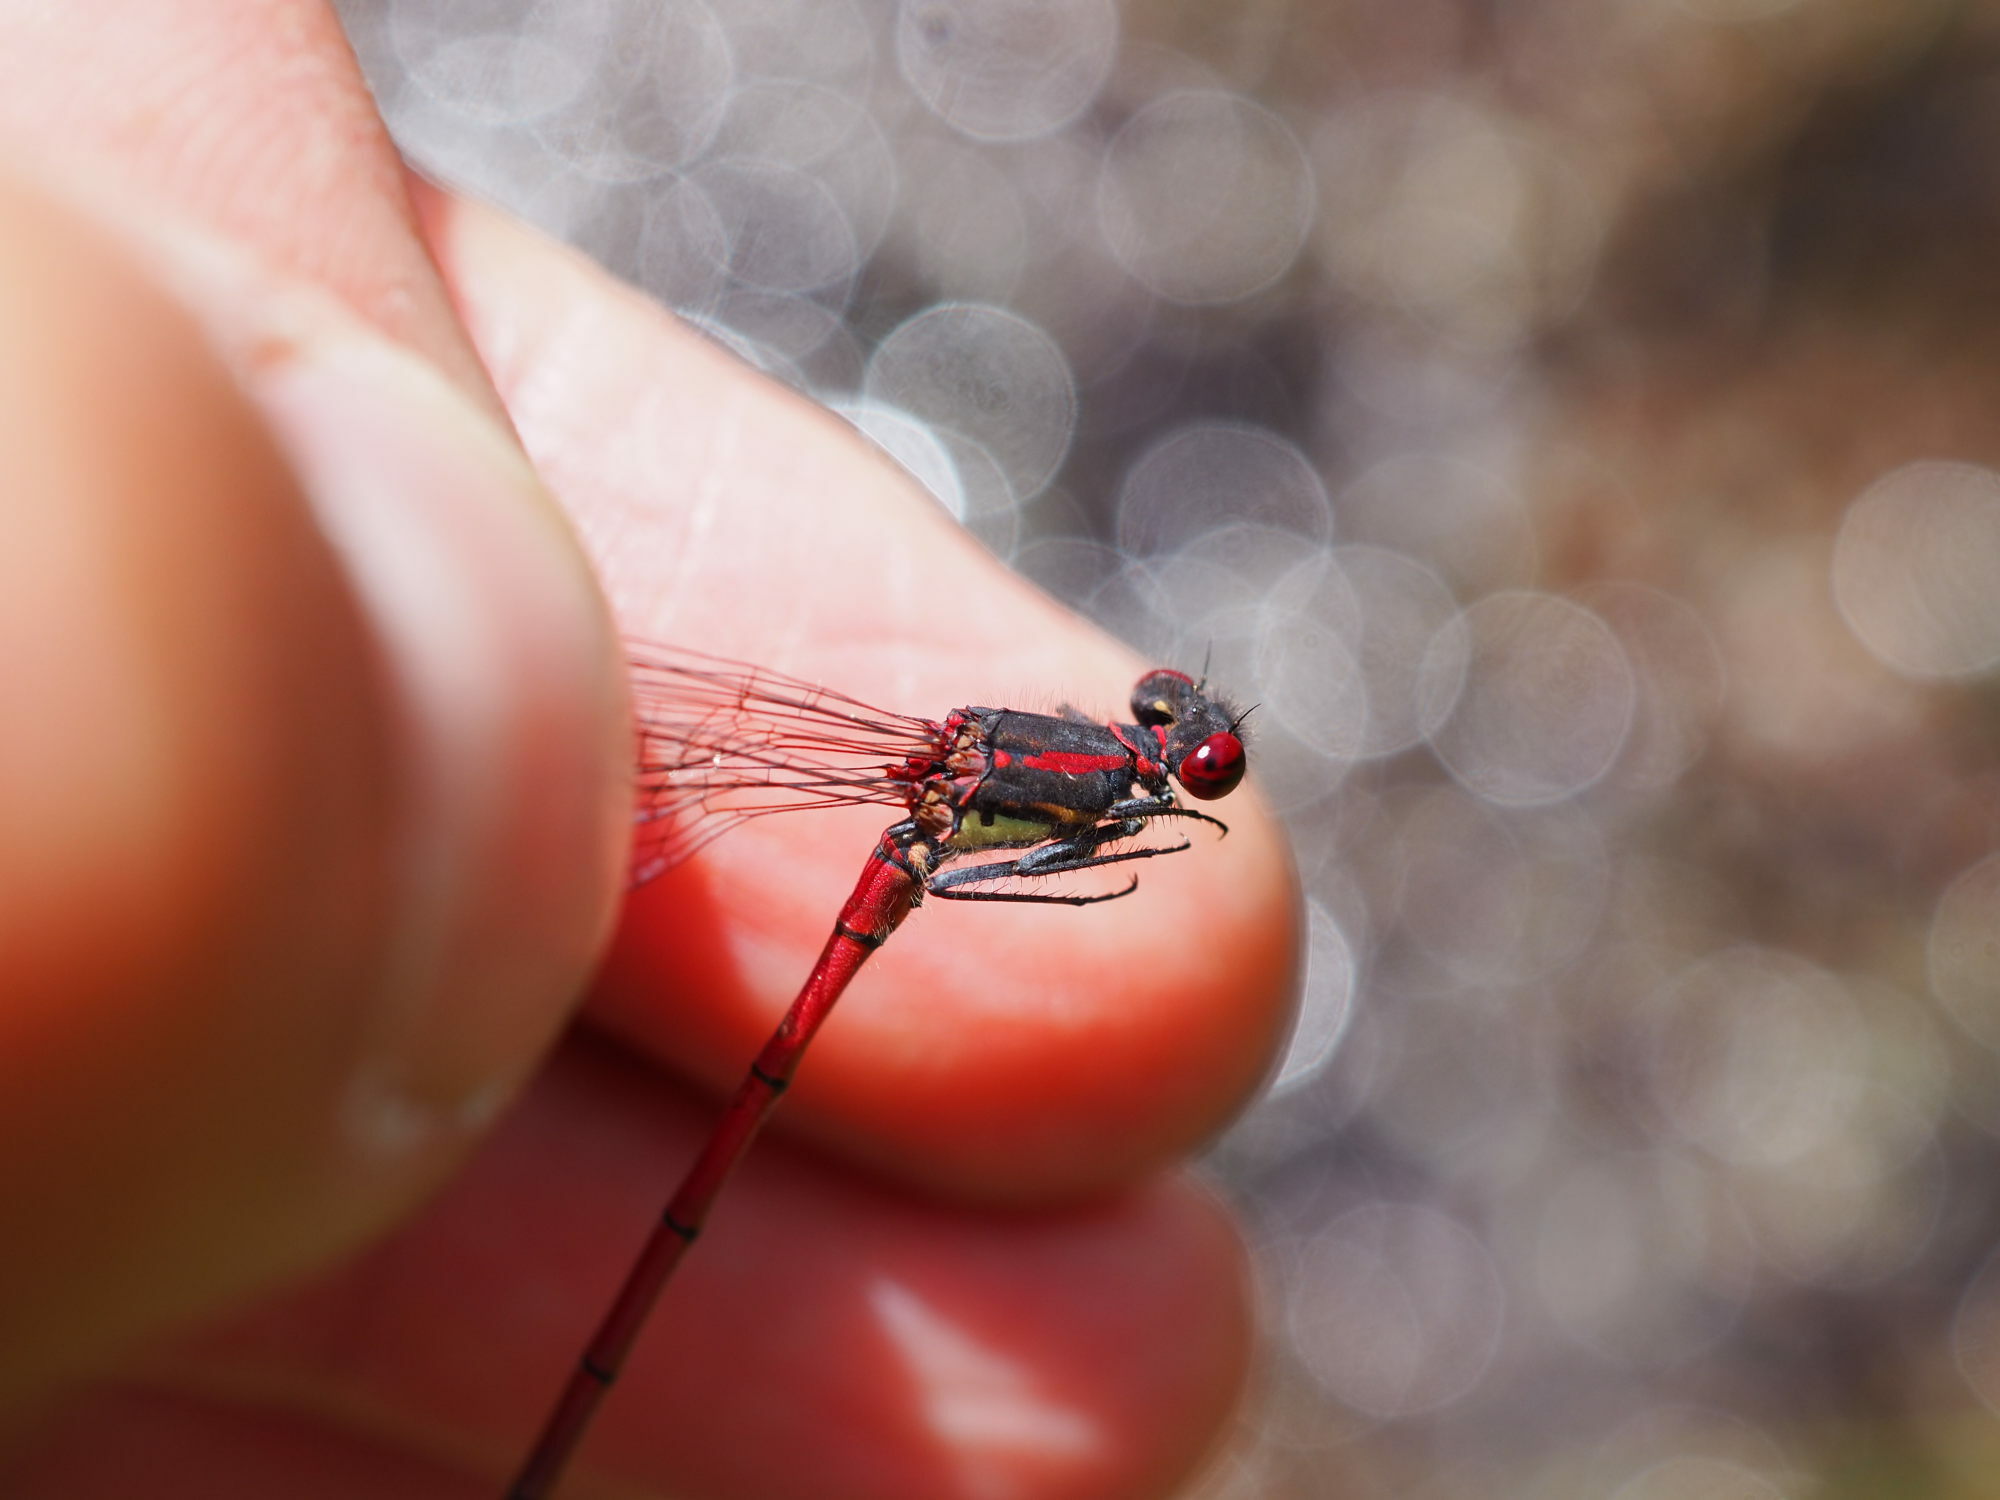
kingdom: Animalia
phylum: Arthropoda
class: Insecta
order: Odonata
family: Coenagrionidae
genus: Pyrrhosoma
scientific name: Pyrrhosoma nymphula
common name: Large red damsel
